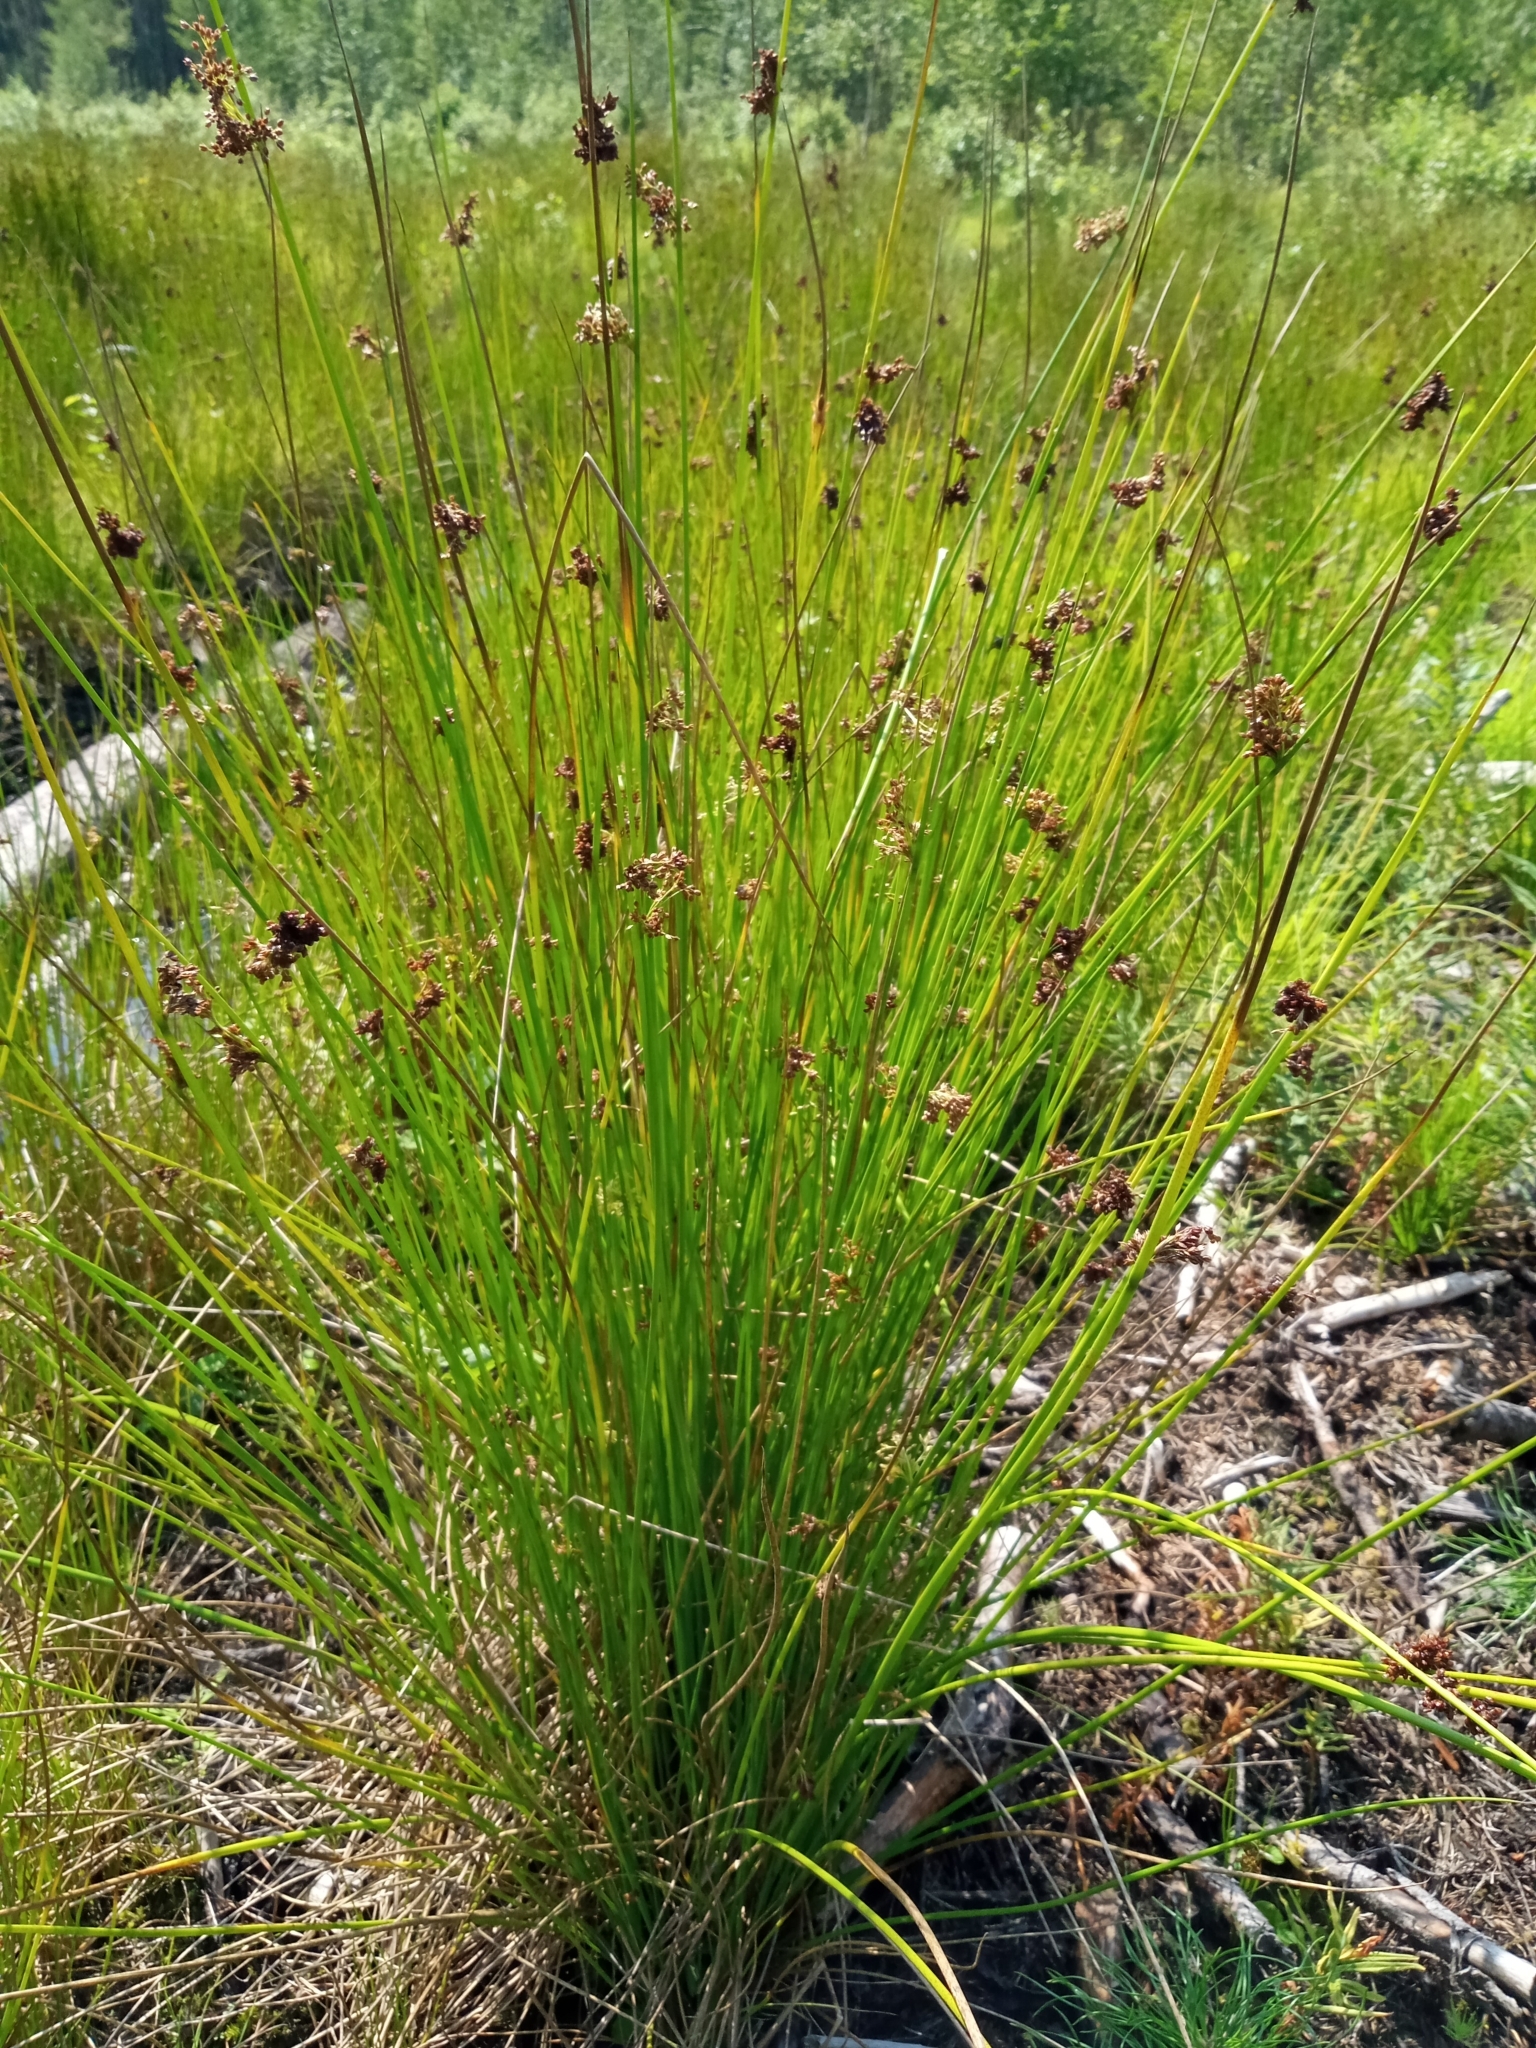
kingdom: Plantae
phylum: Tracheophyta
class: Liliopsida
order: Poales
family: Juncaceae
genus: Juncus
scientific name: Juncus effusus
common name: Soft rush
